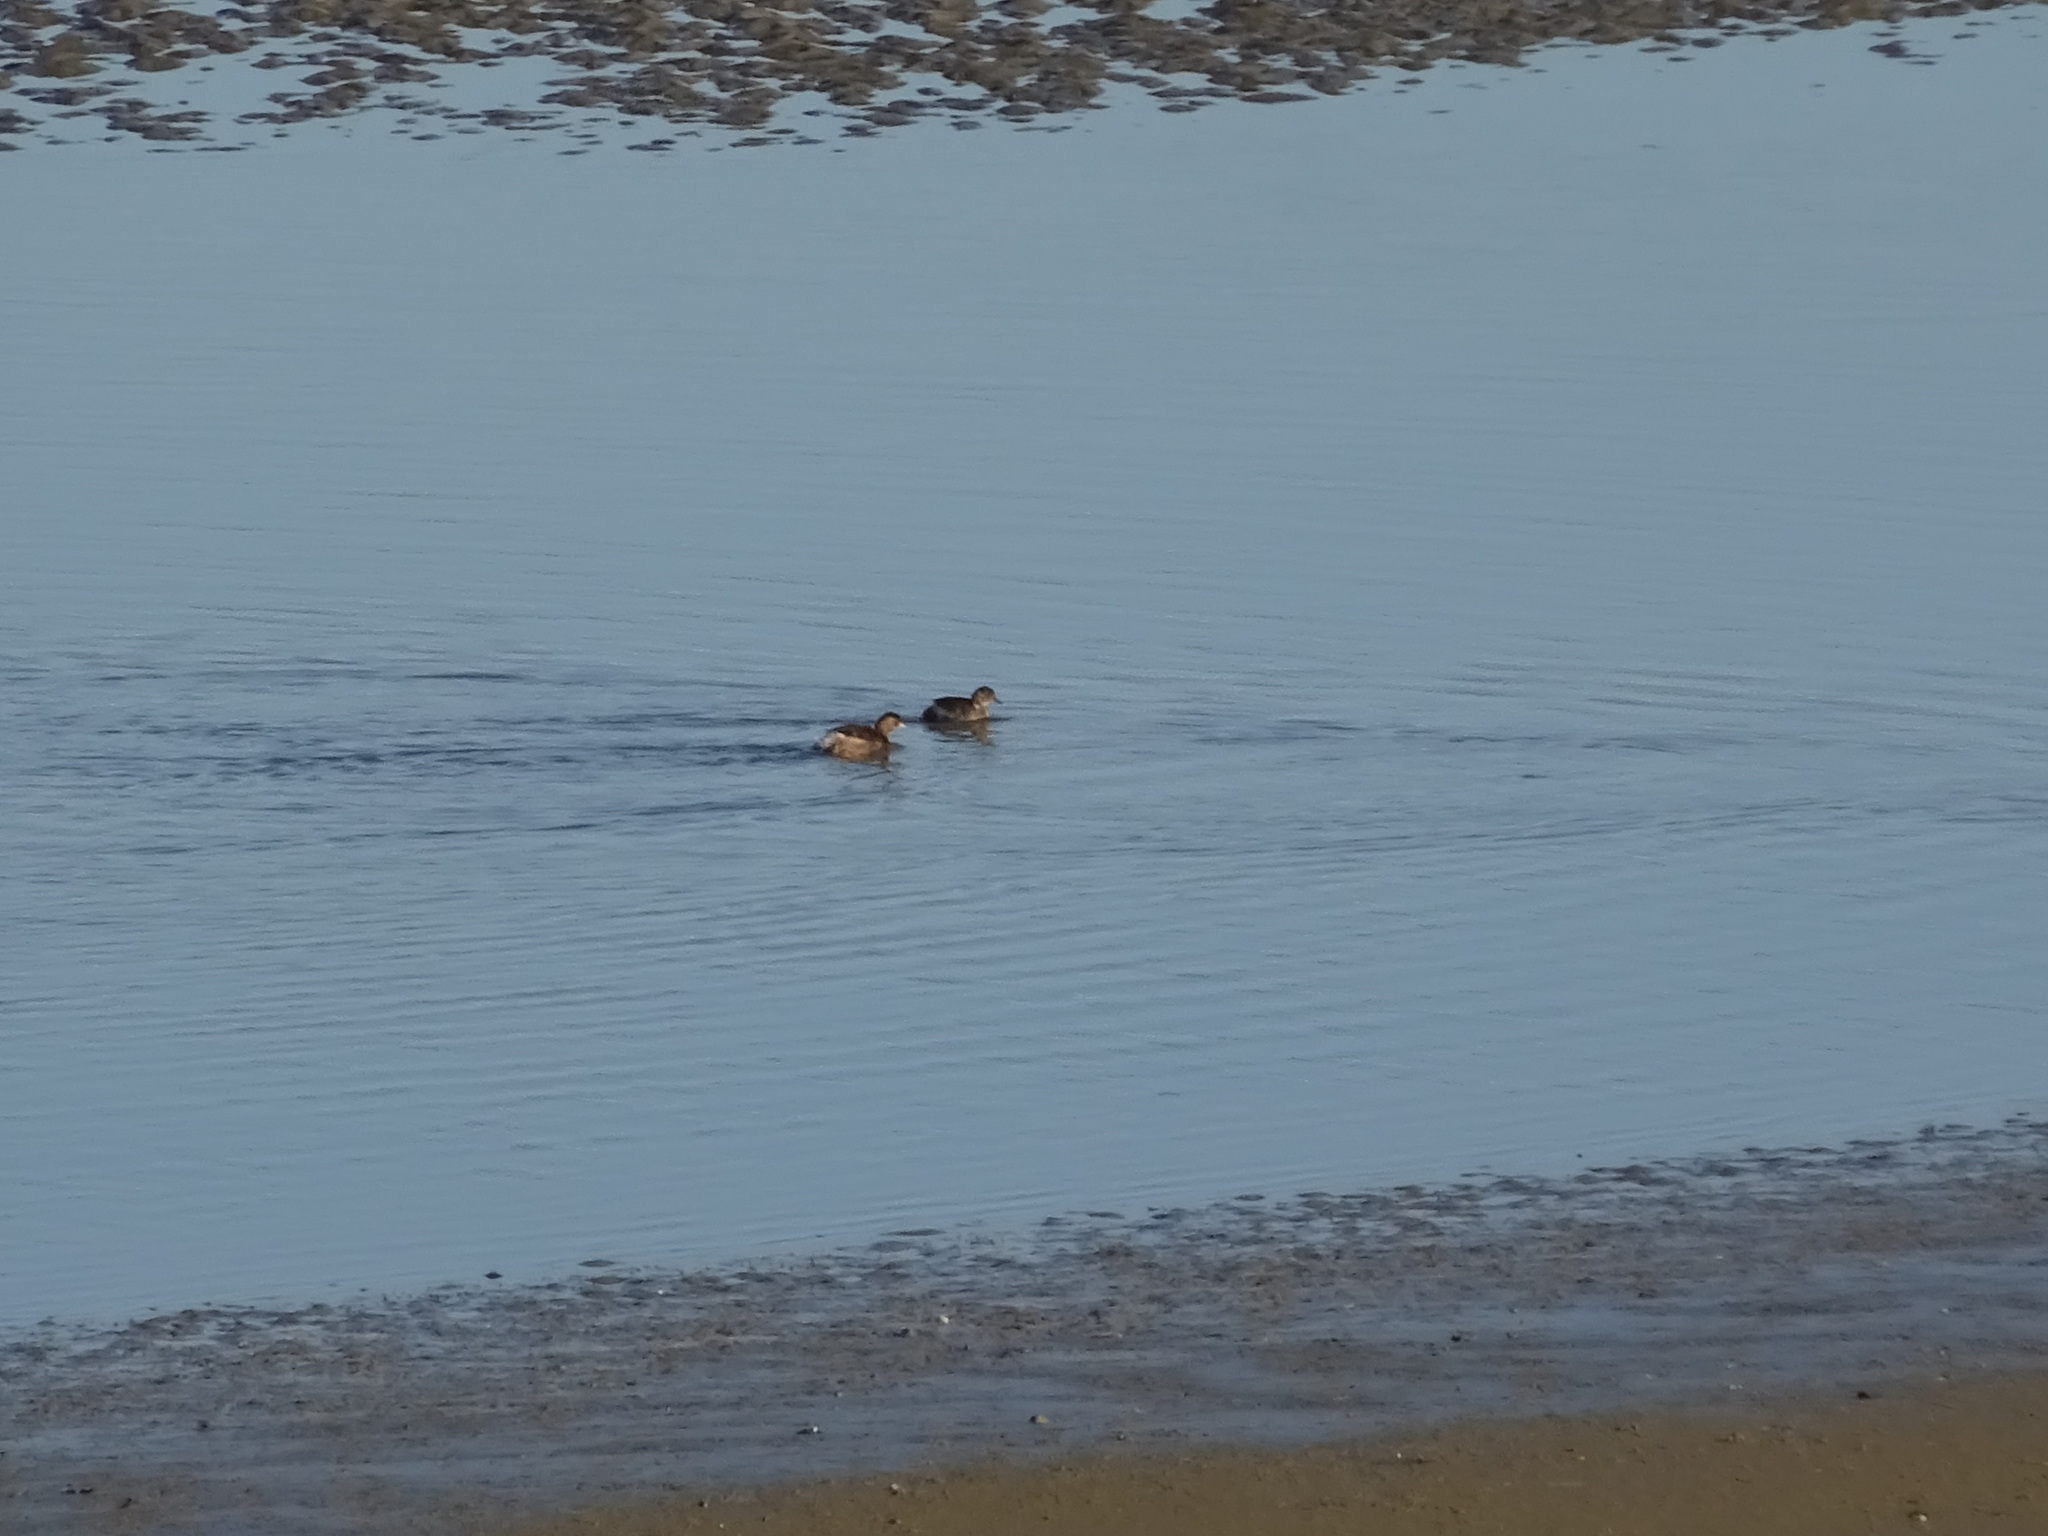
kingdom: Animalia
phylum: Chordata
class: Aves
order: Podicipediformes
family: Podicipedidae
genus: Tachybaptus
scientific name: Tachybaptus ruficollis
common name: Little grebe
